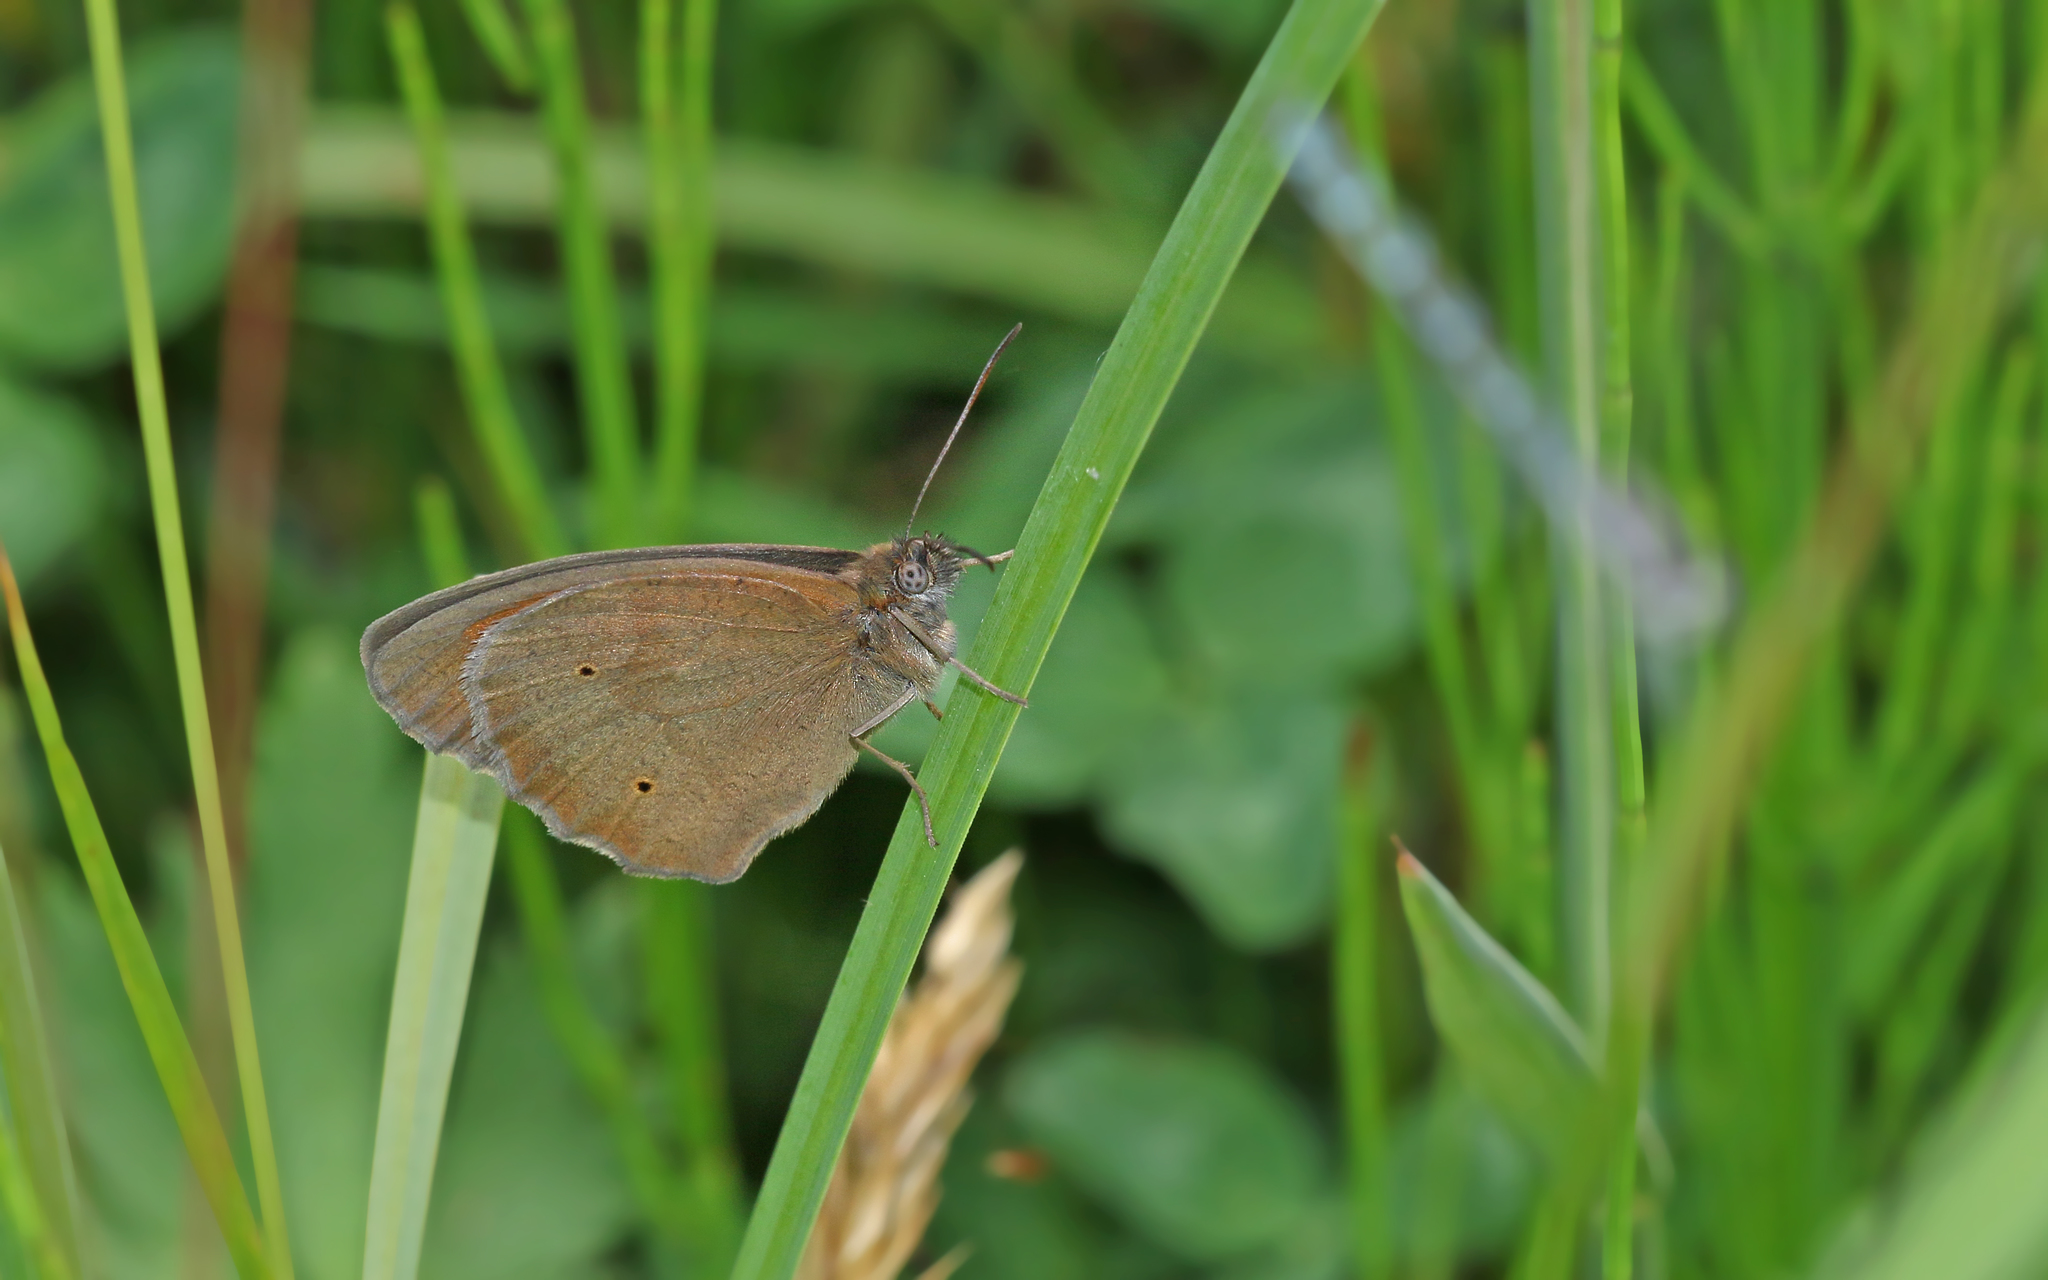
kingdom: Animalia
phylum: Arthropoda
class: Insecta
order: Lepidoptera
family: Nymphalidae
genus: Maniola
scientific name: Maniola jurtina
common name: Meadow brown
